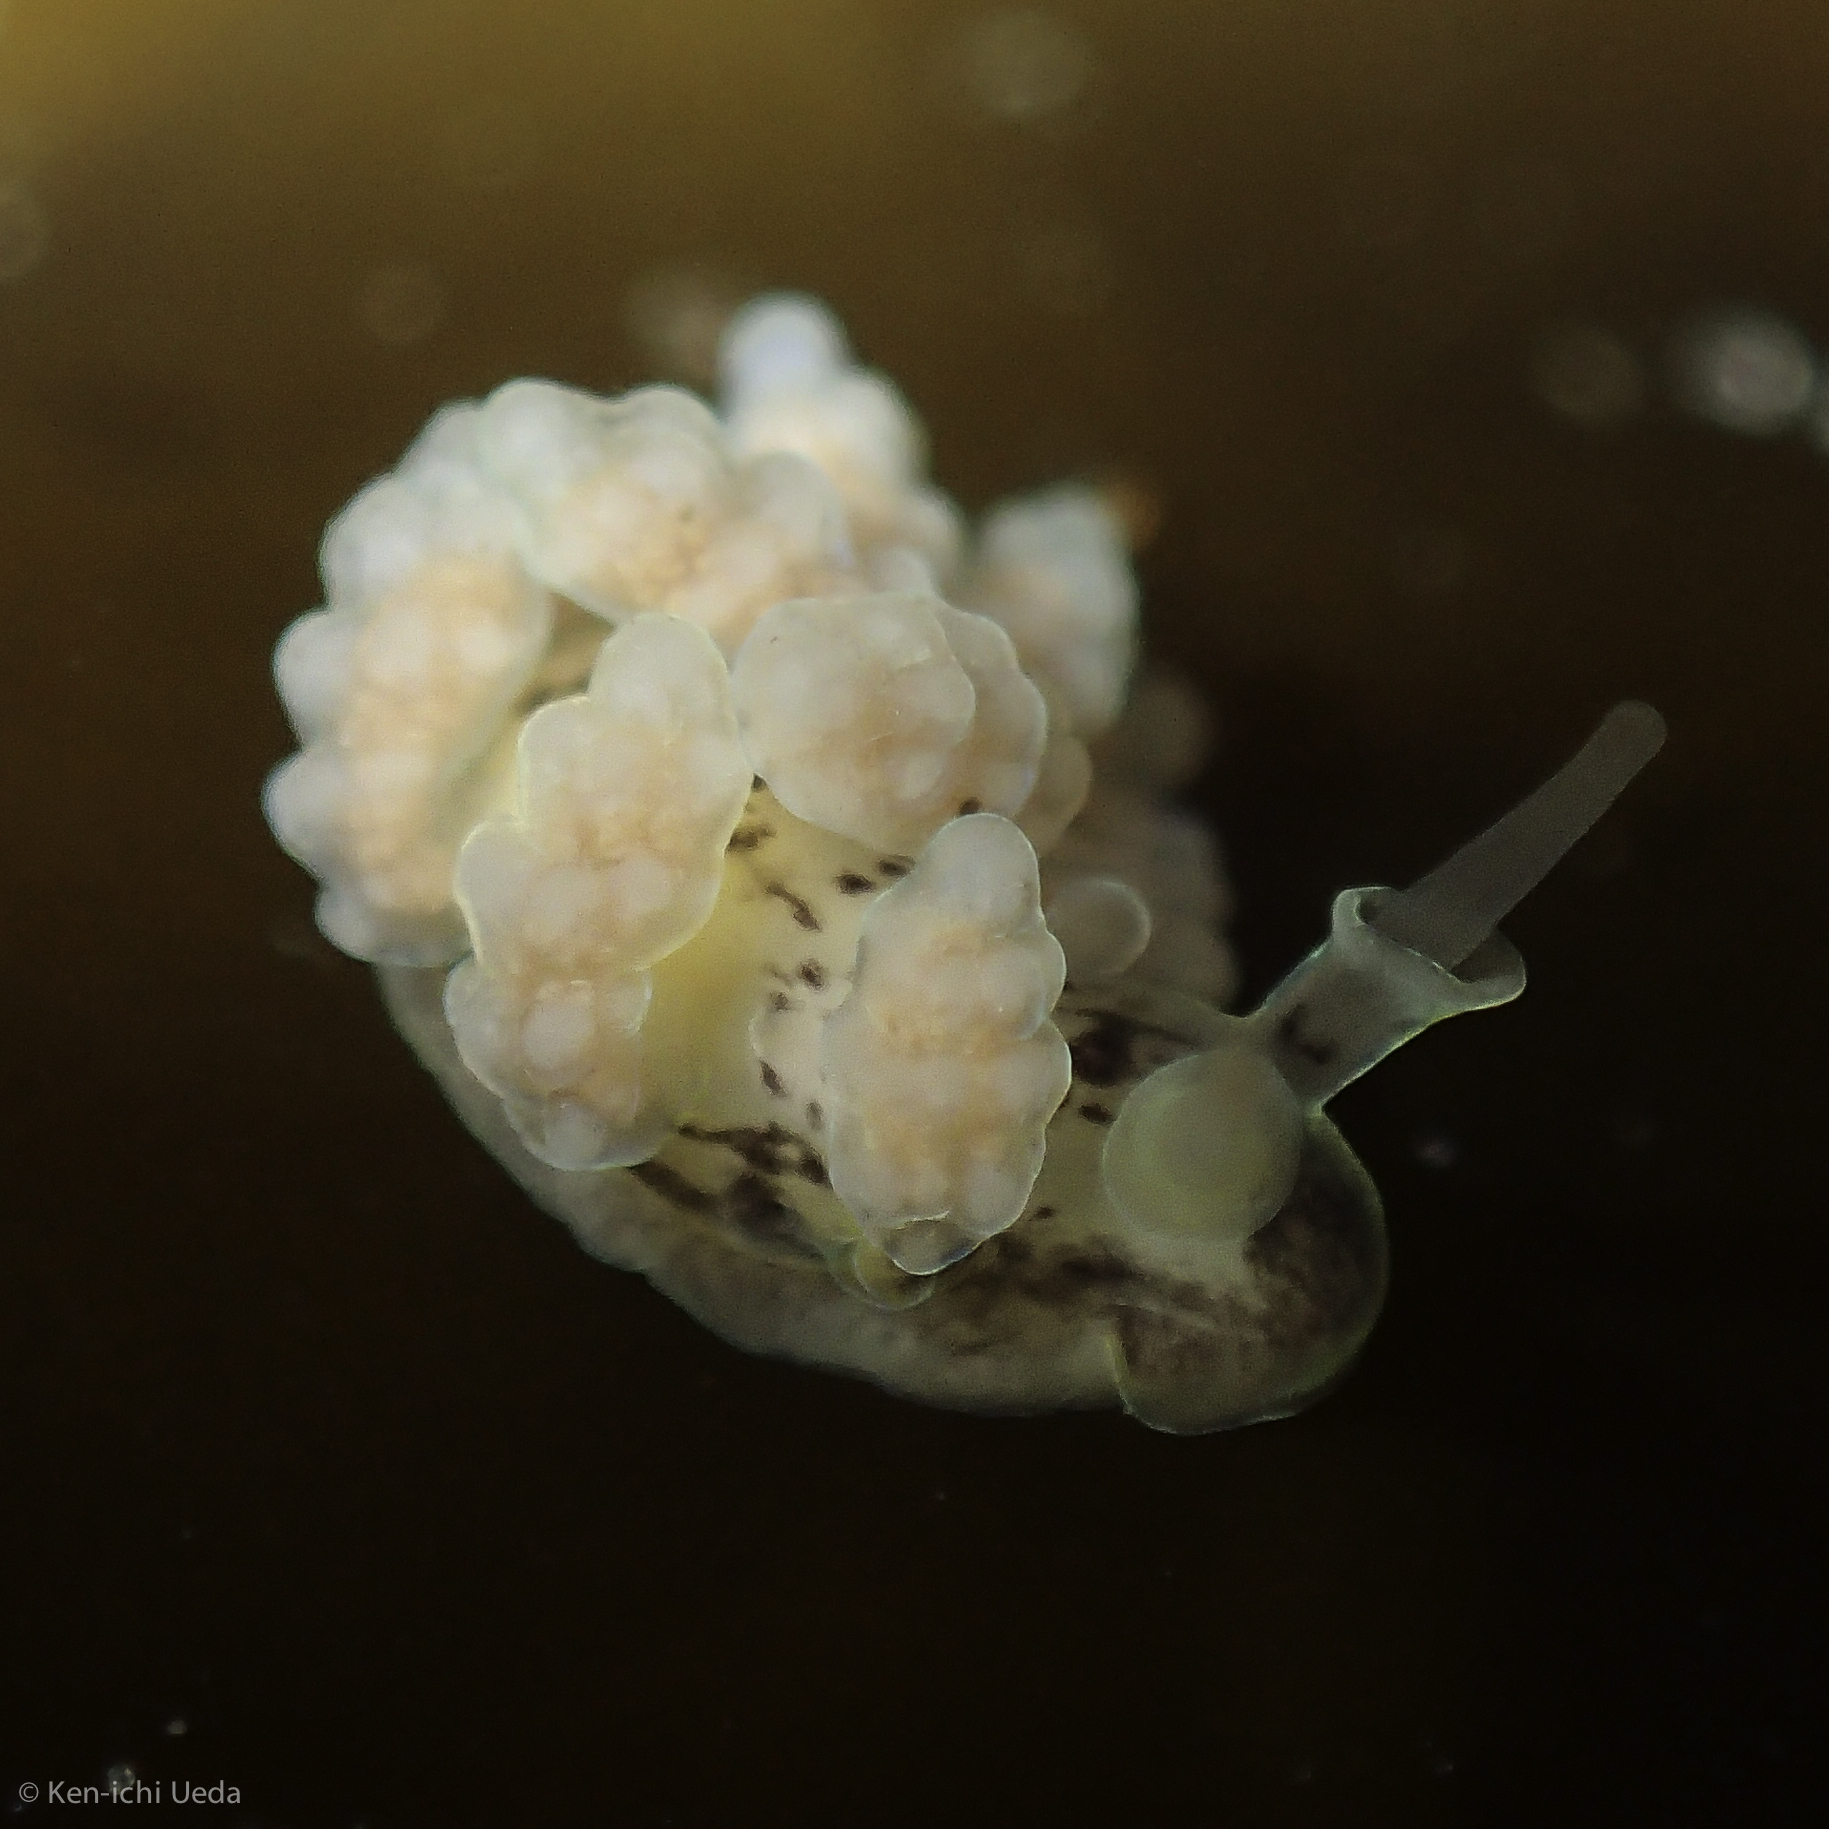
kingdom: Animalia
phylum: Mollusca
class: Gastropoda
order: Nudibranchia
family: Dotidae
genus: Doto
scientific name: Doto columbiana
